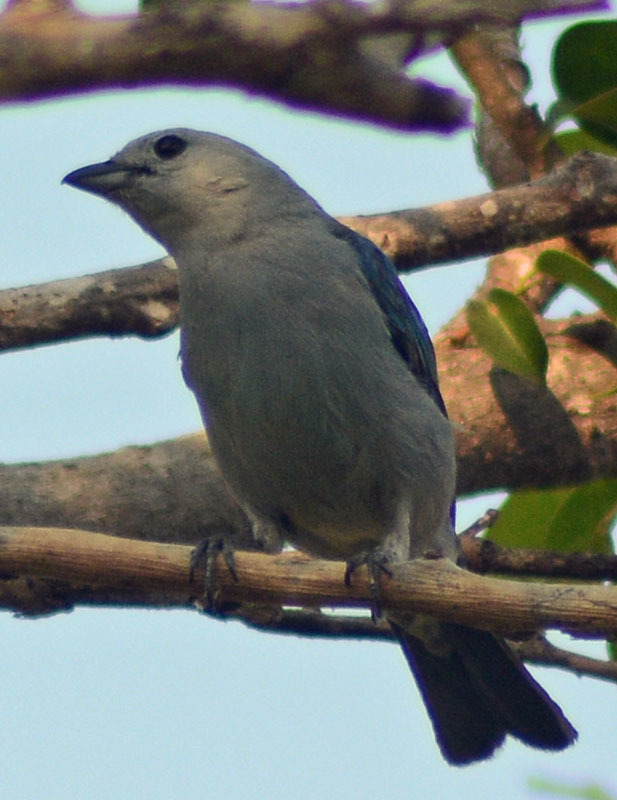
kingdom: Animalia
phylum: Chordata
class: Aves
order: Passeriformes
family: Thraupidae
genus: Thraupis
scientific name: Thraupis episcopus
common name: Blue-grey tanager
